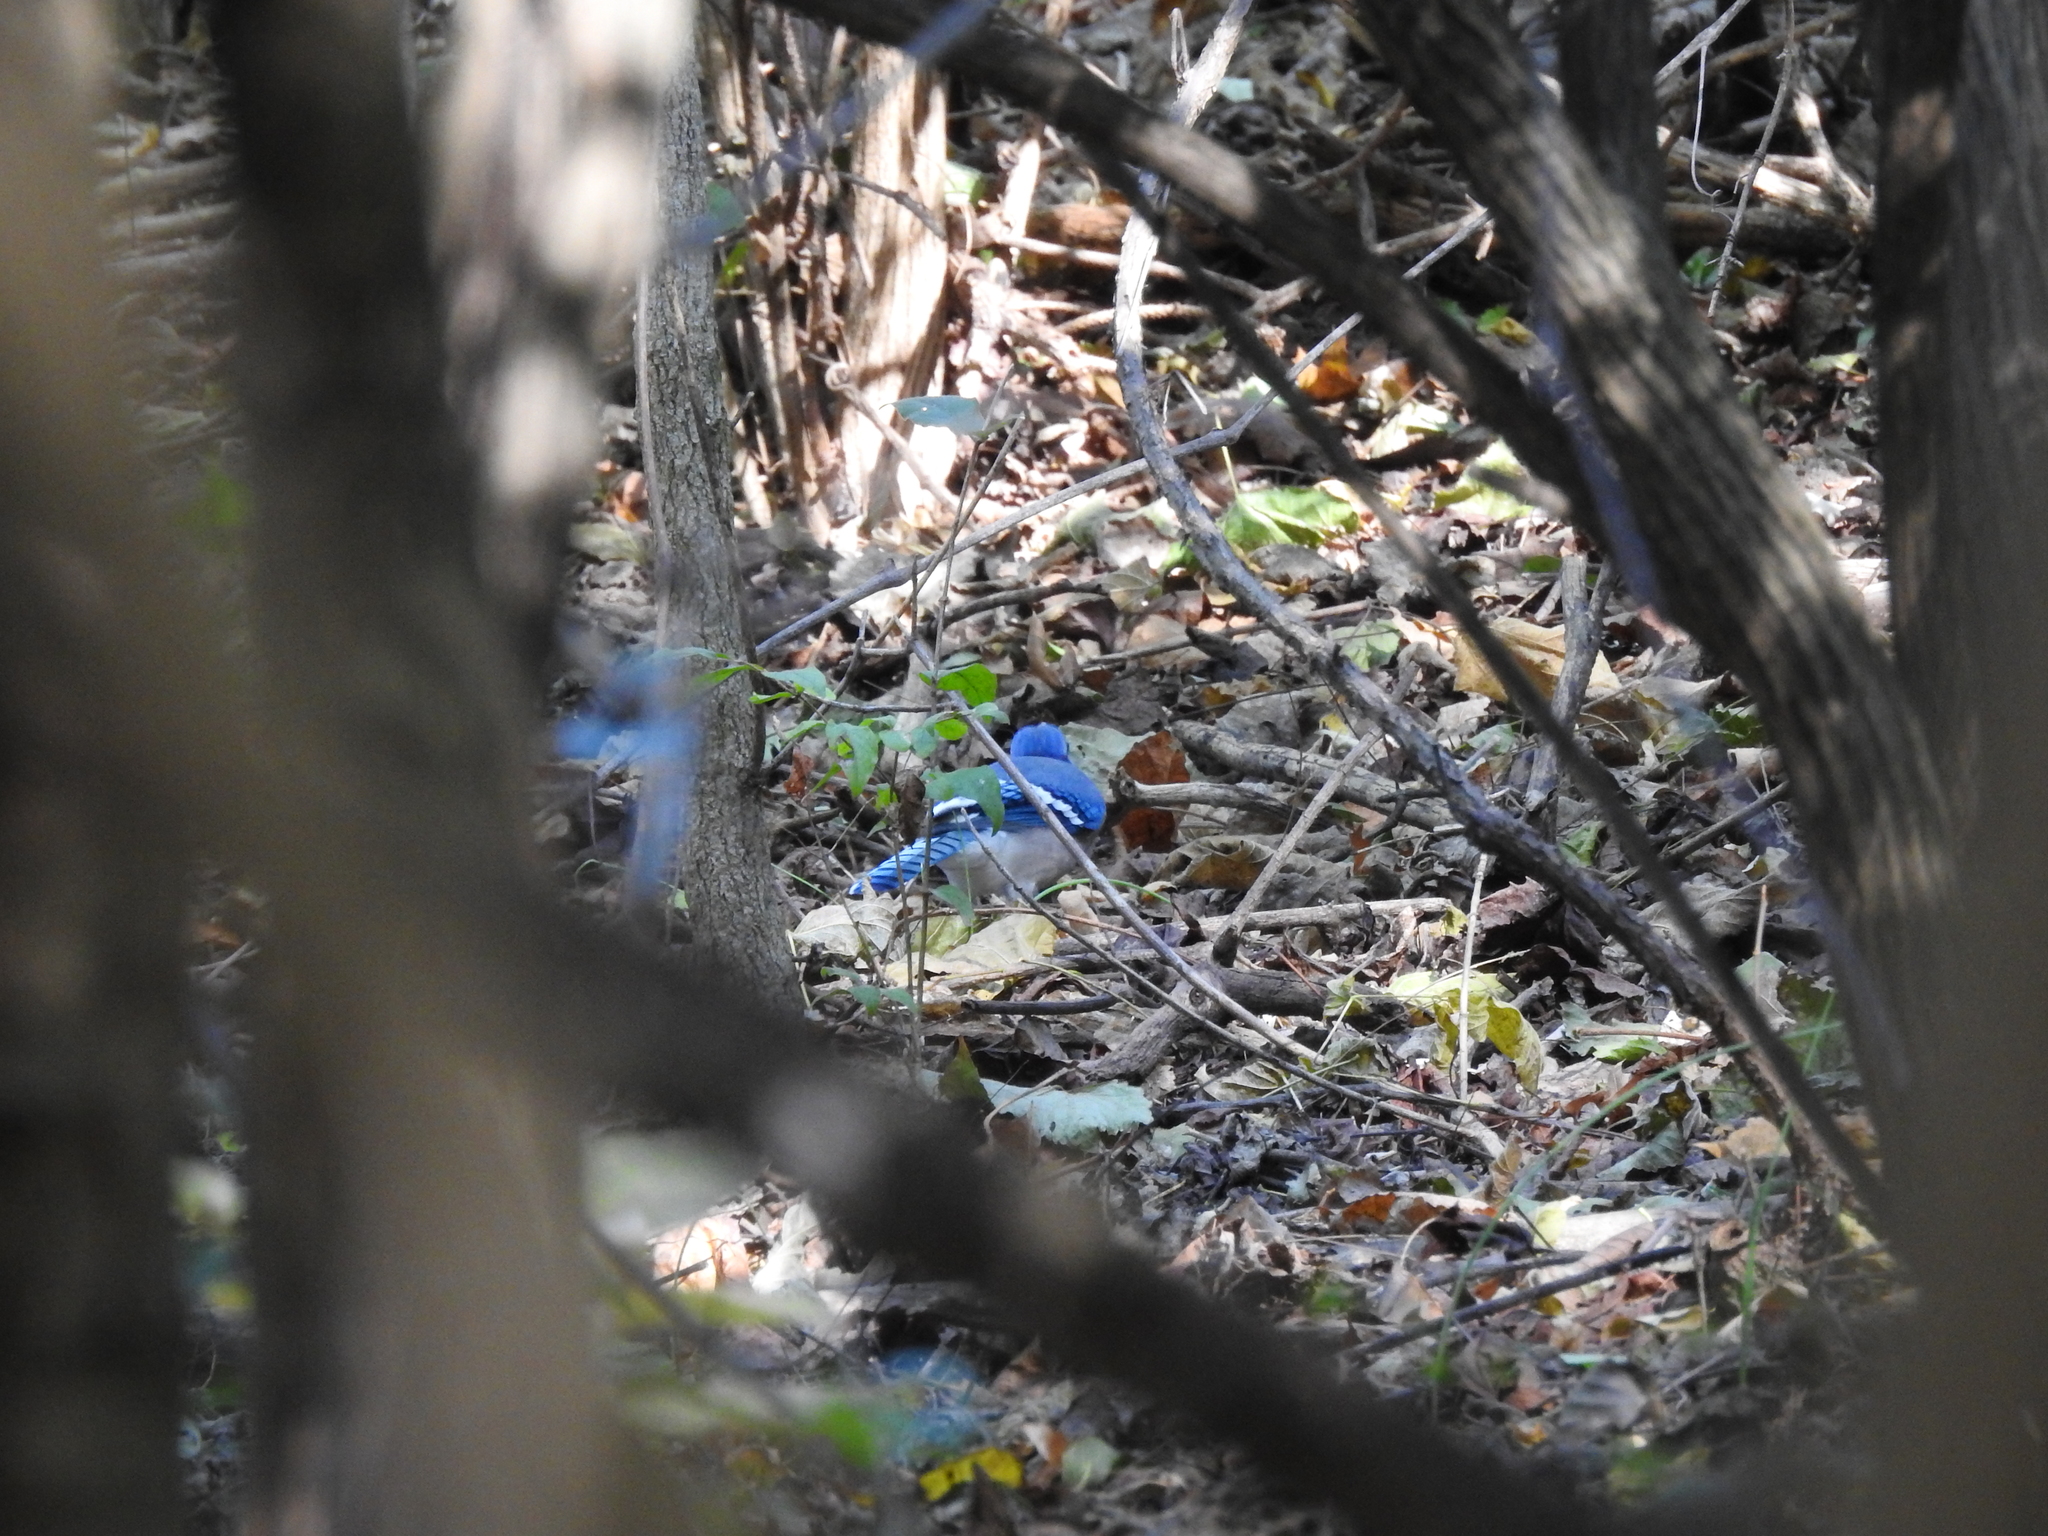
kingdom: Animalia
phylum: Chordata
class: Aves
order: Passeriformes
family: Corvidae
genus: Cyanocitta
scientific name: Cyanocitta cristata
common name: Blue jay
